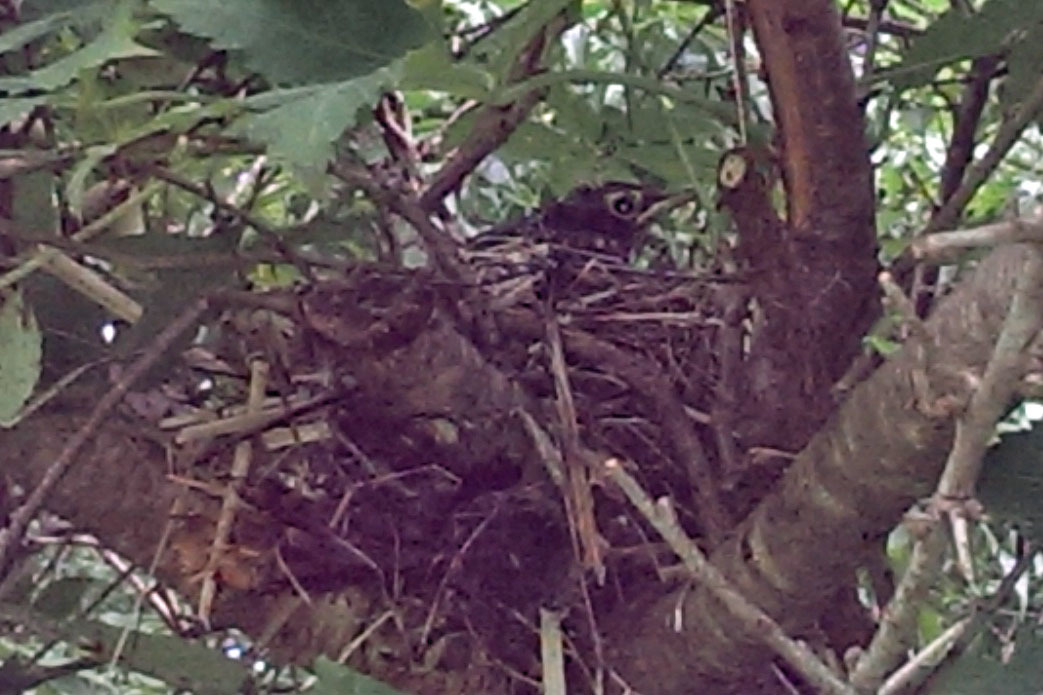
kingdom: Animalia
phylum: Chordata
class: Aves
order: Passeriformes
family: Turdidae
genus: Turdus
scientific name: Turdus migratorius
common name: American robin
